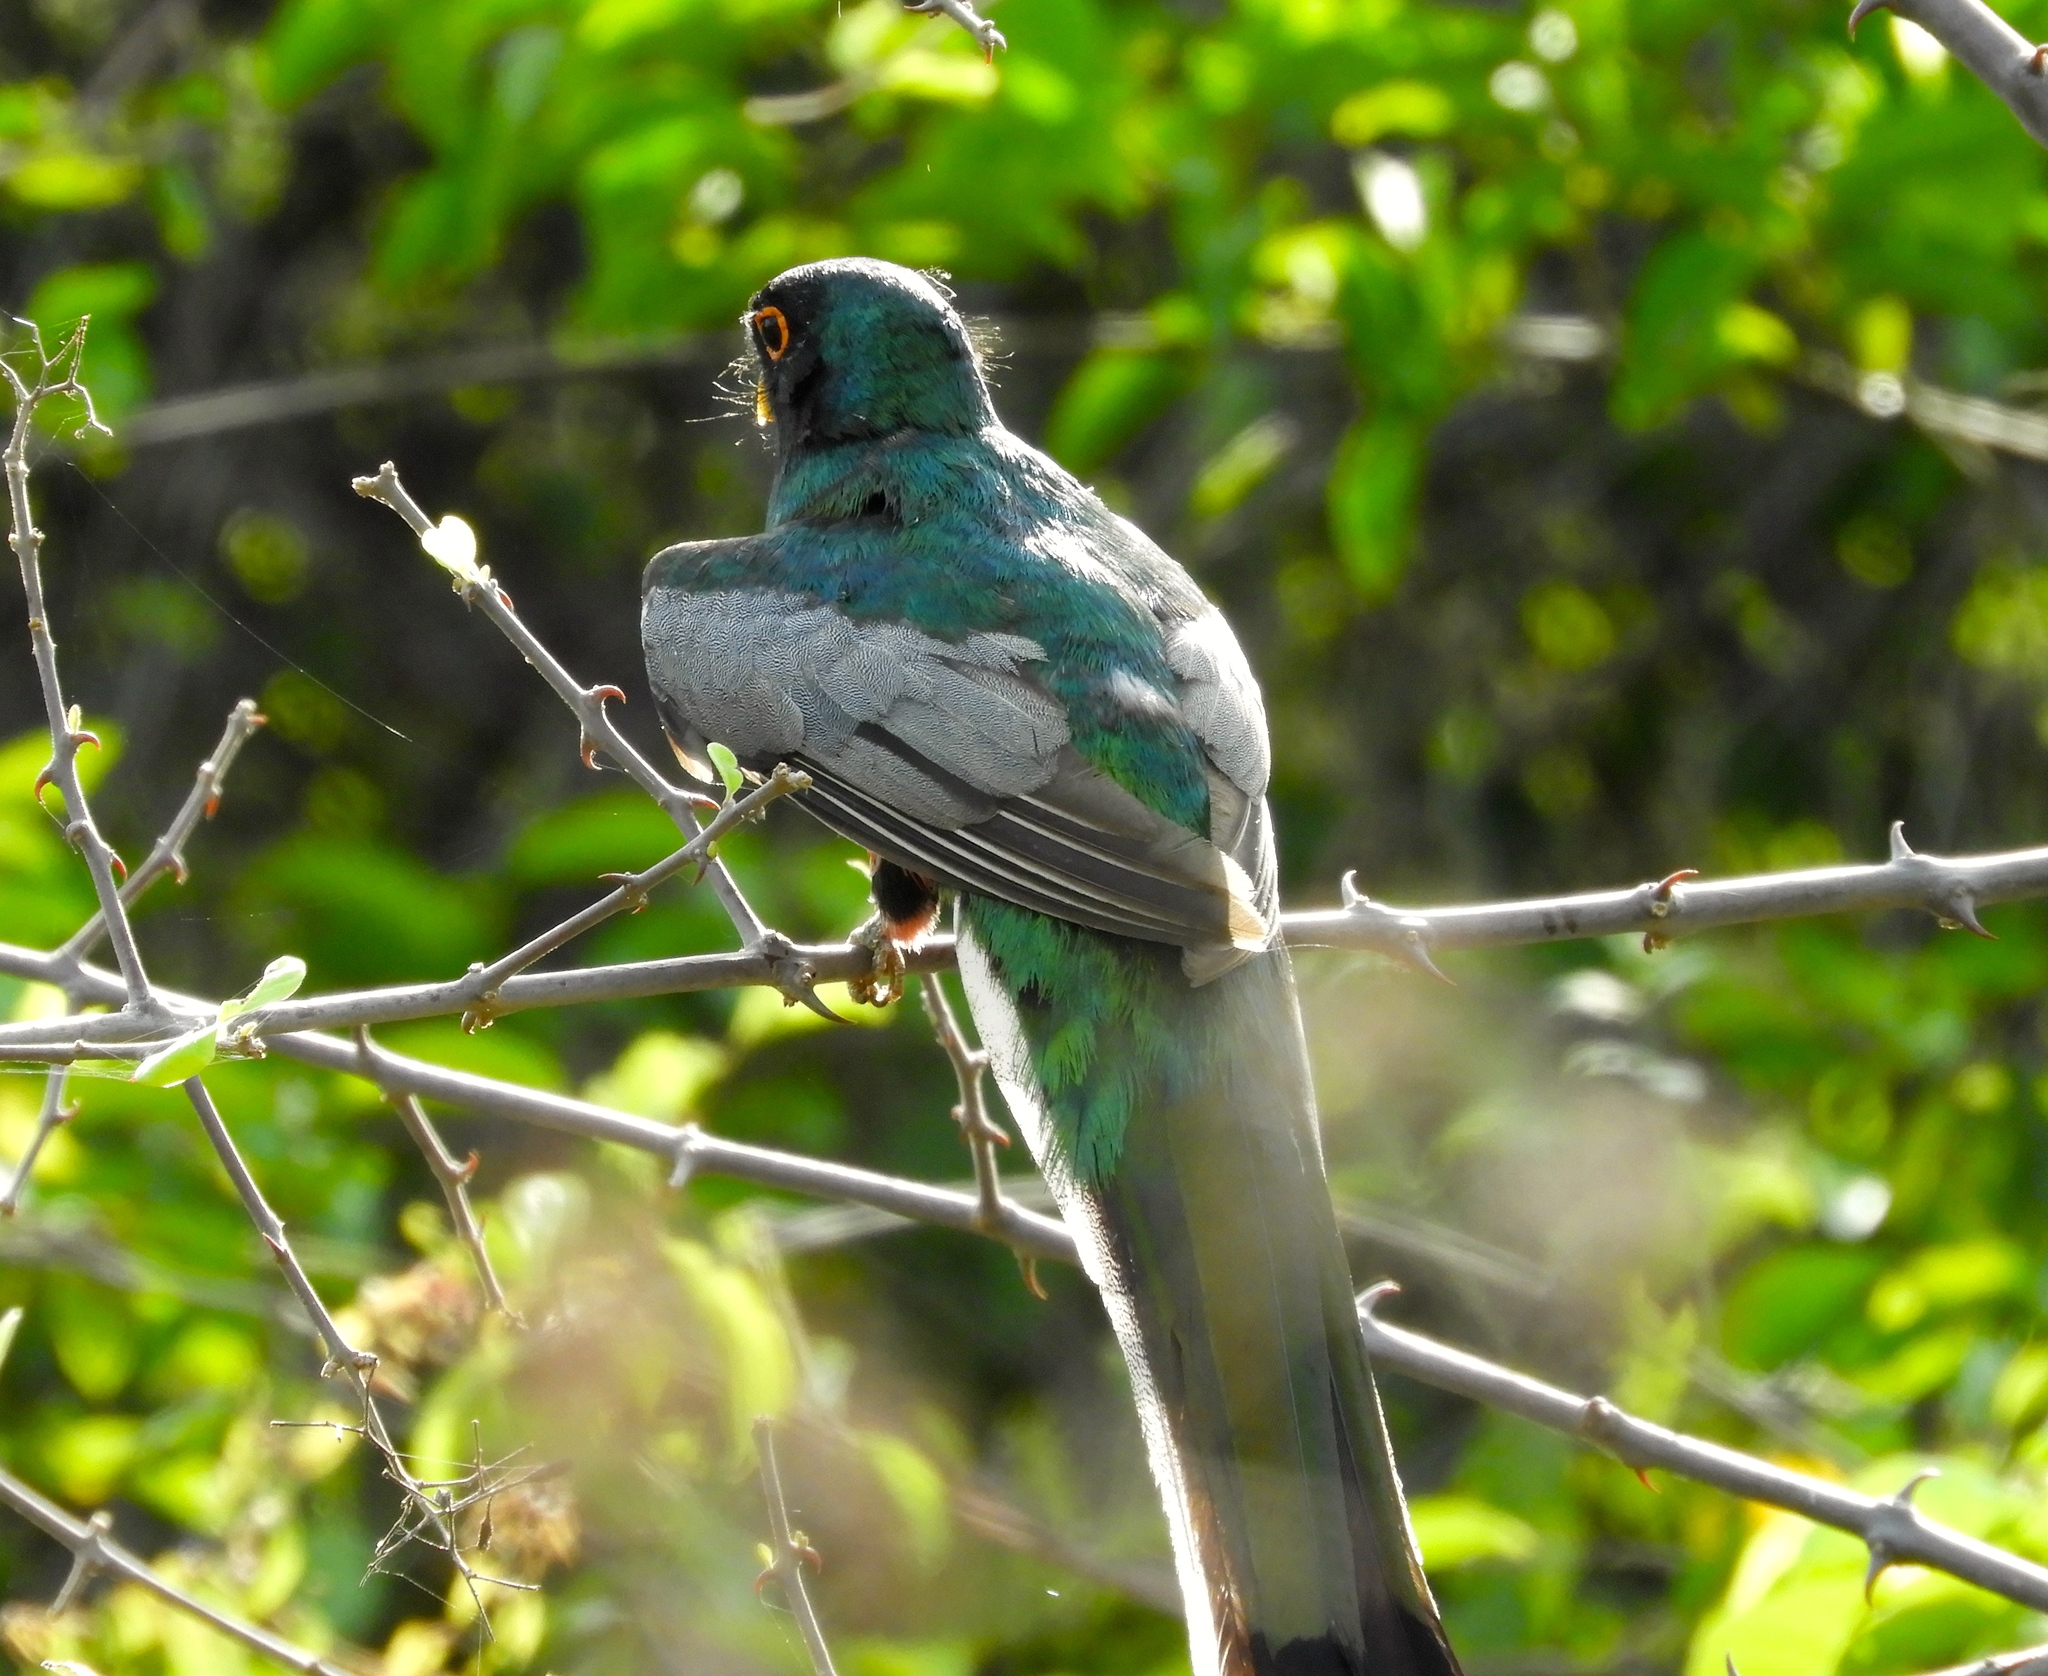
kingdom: Animalia
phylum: Chordata
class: Aves
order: Trogoniformes
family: Trogonidae
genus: Trogon
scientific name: Trogon elegans
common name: Elegant trogon
